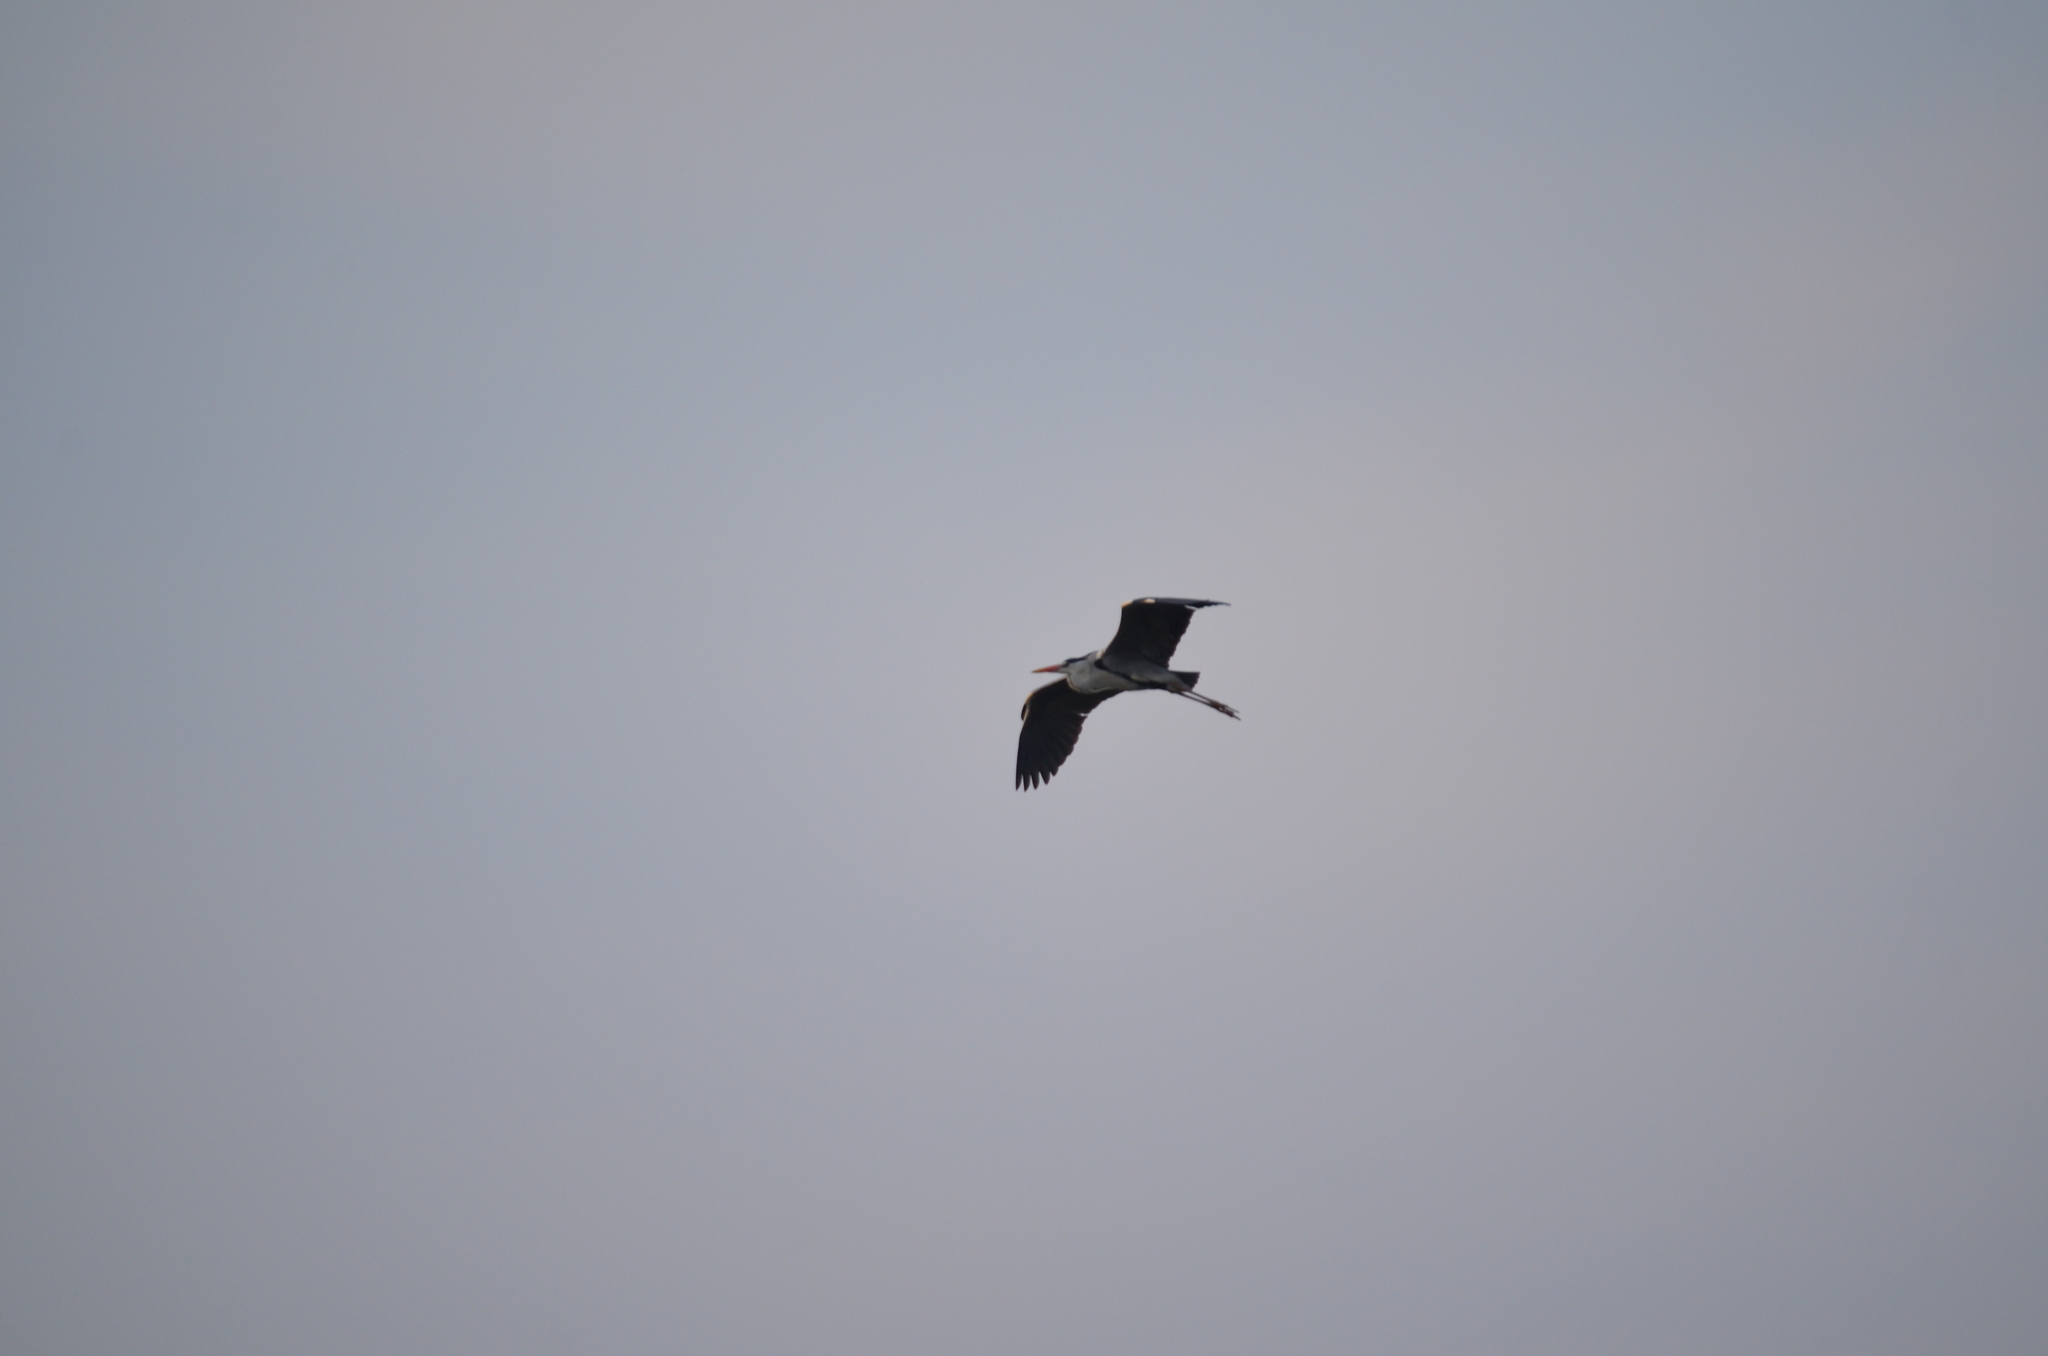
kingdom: Animalia
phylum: Chordata
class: Aves
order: Pelecaniformes
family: Ardeidae
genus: Ardea
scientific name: Ardea cinerea
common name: Grey heron
